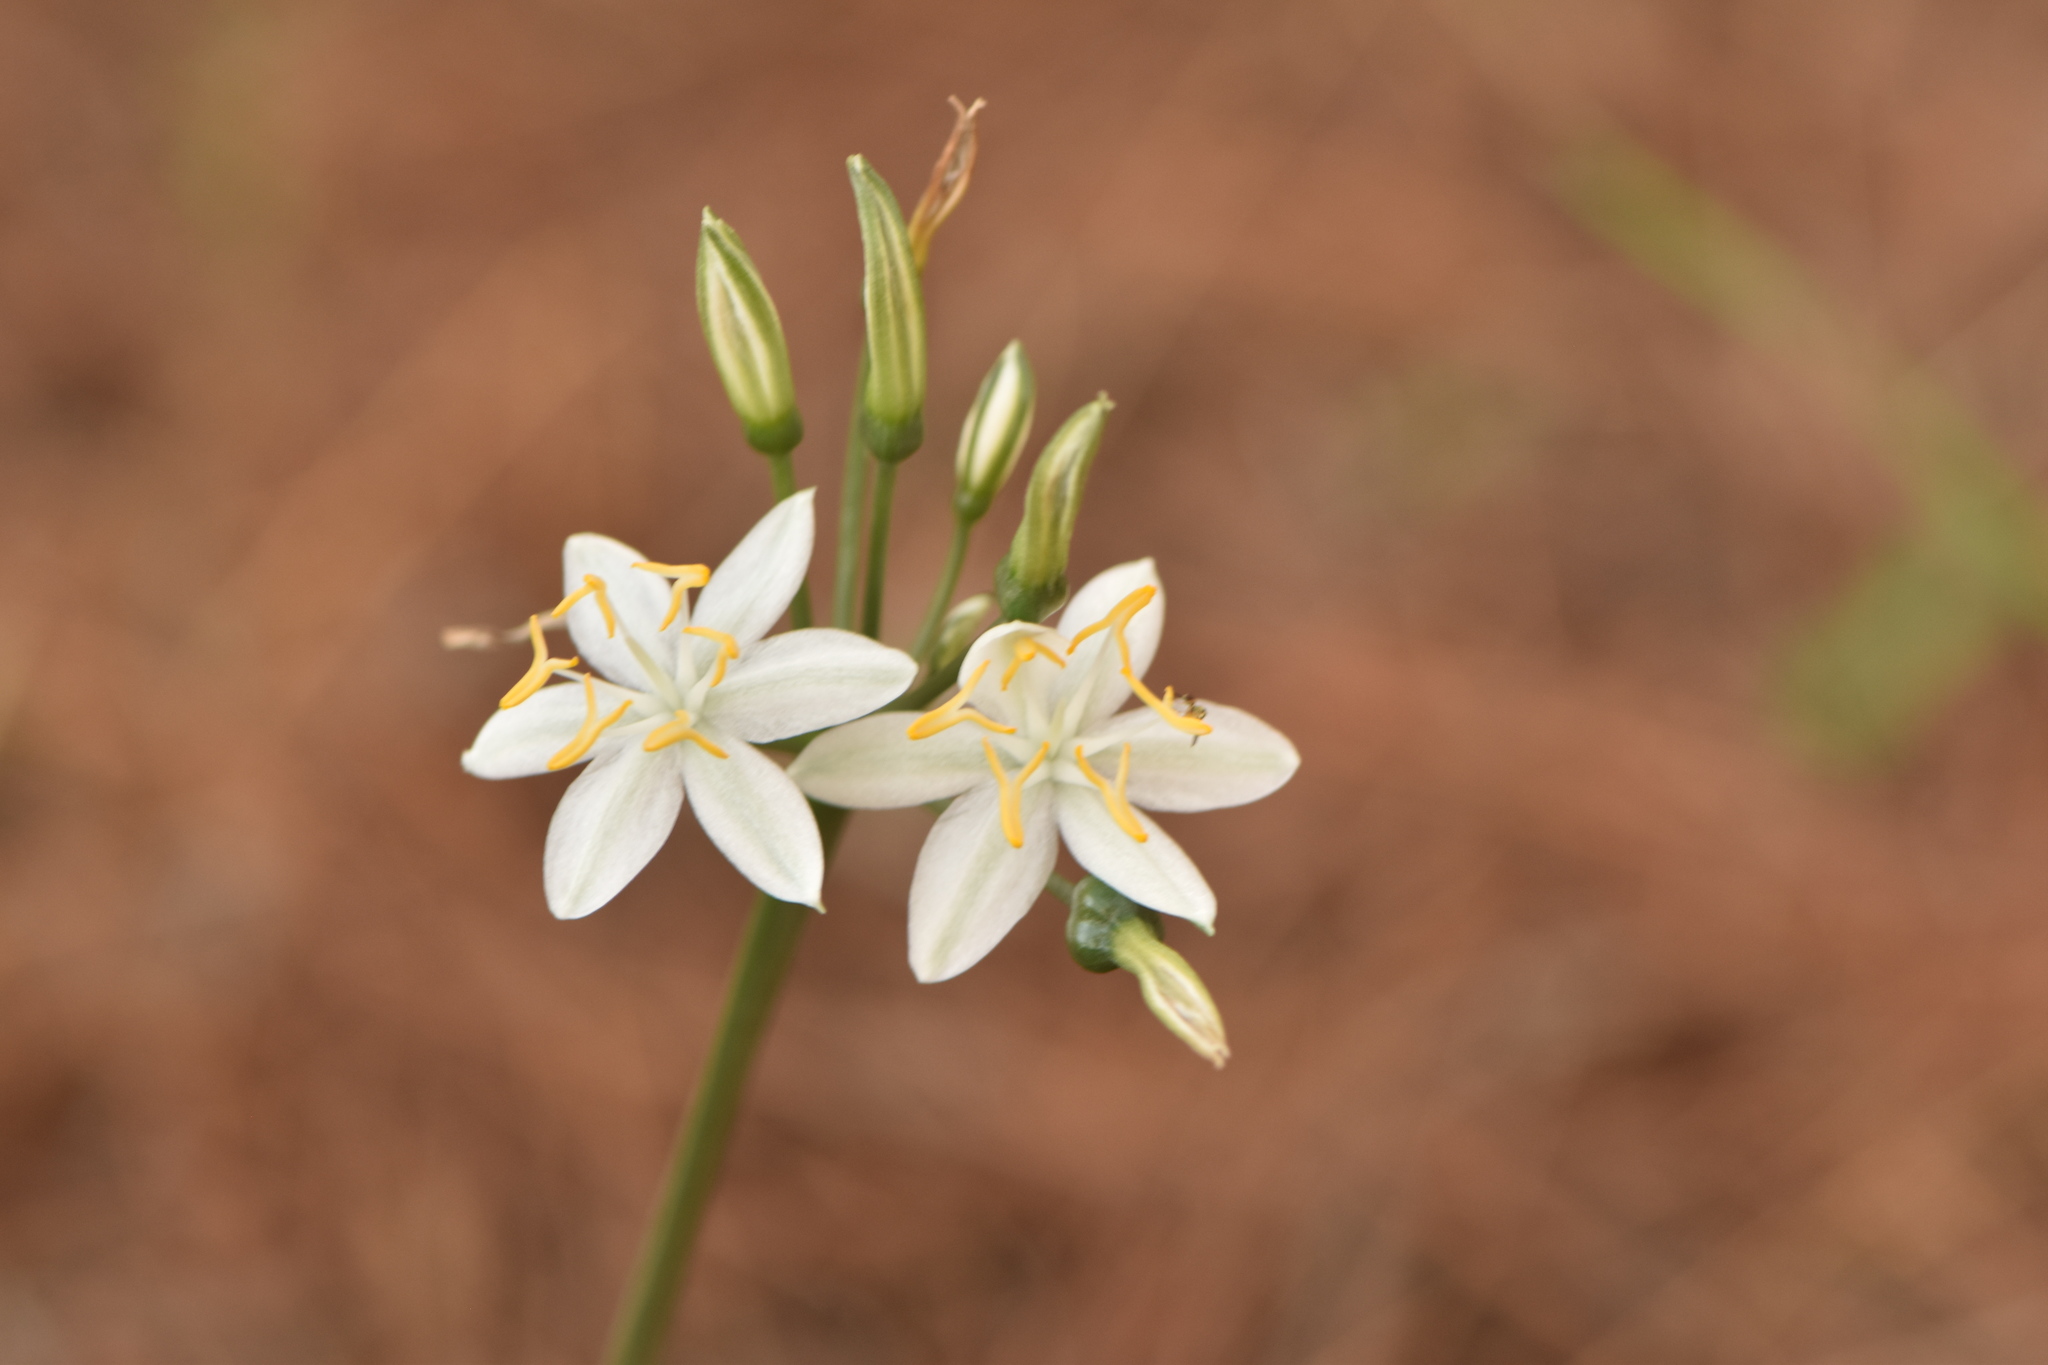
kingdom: Plantae
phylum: Tracheophyta
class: Liliopsida
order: Asparagales
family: Amaryllidaceae
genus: Lapiedra
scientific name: Lapiedra martinezii
